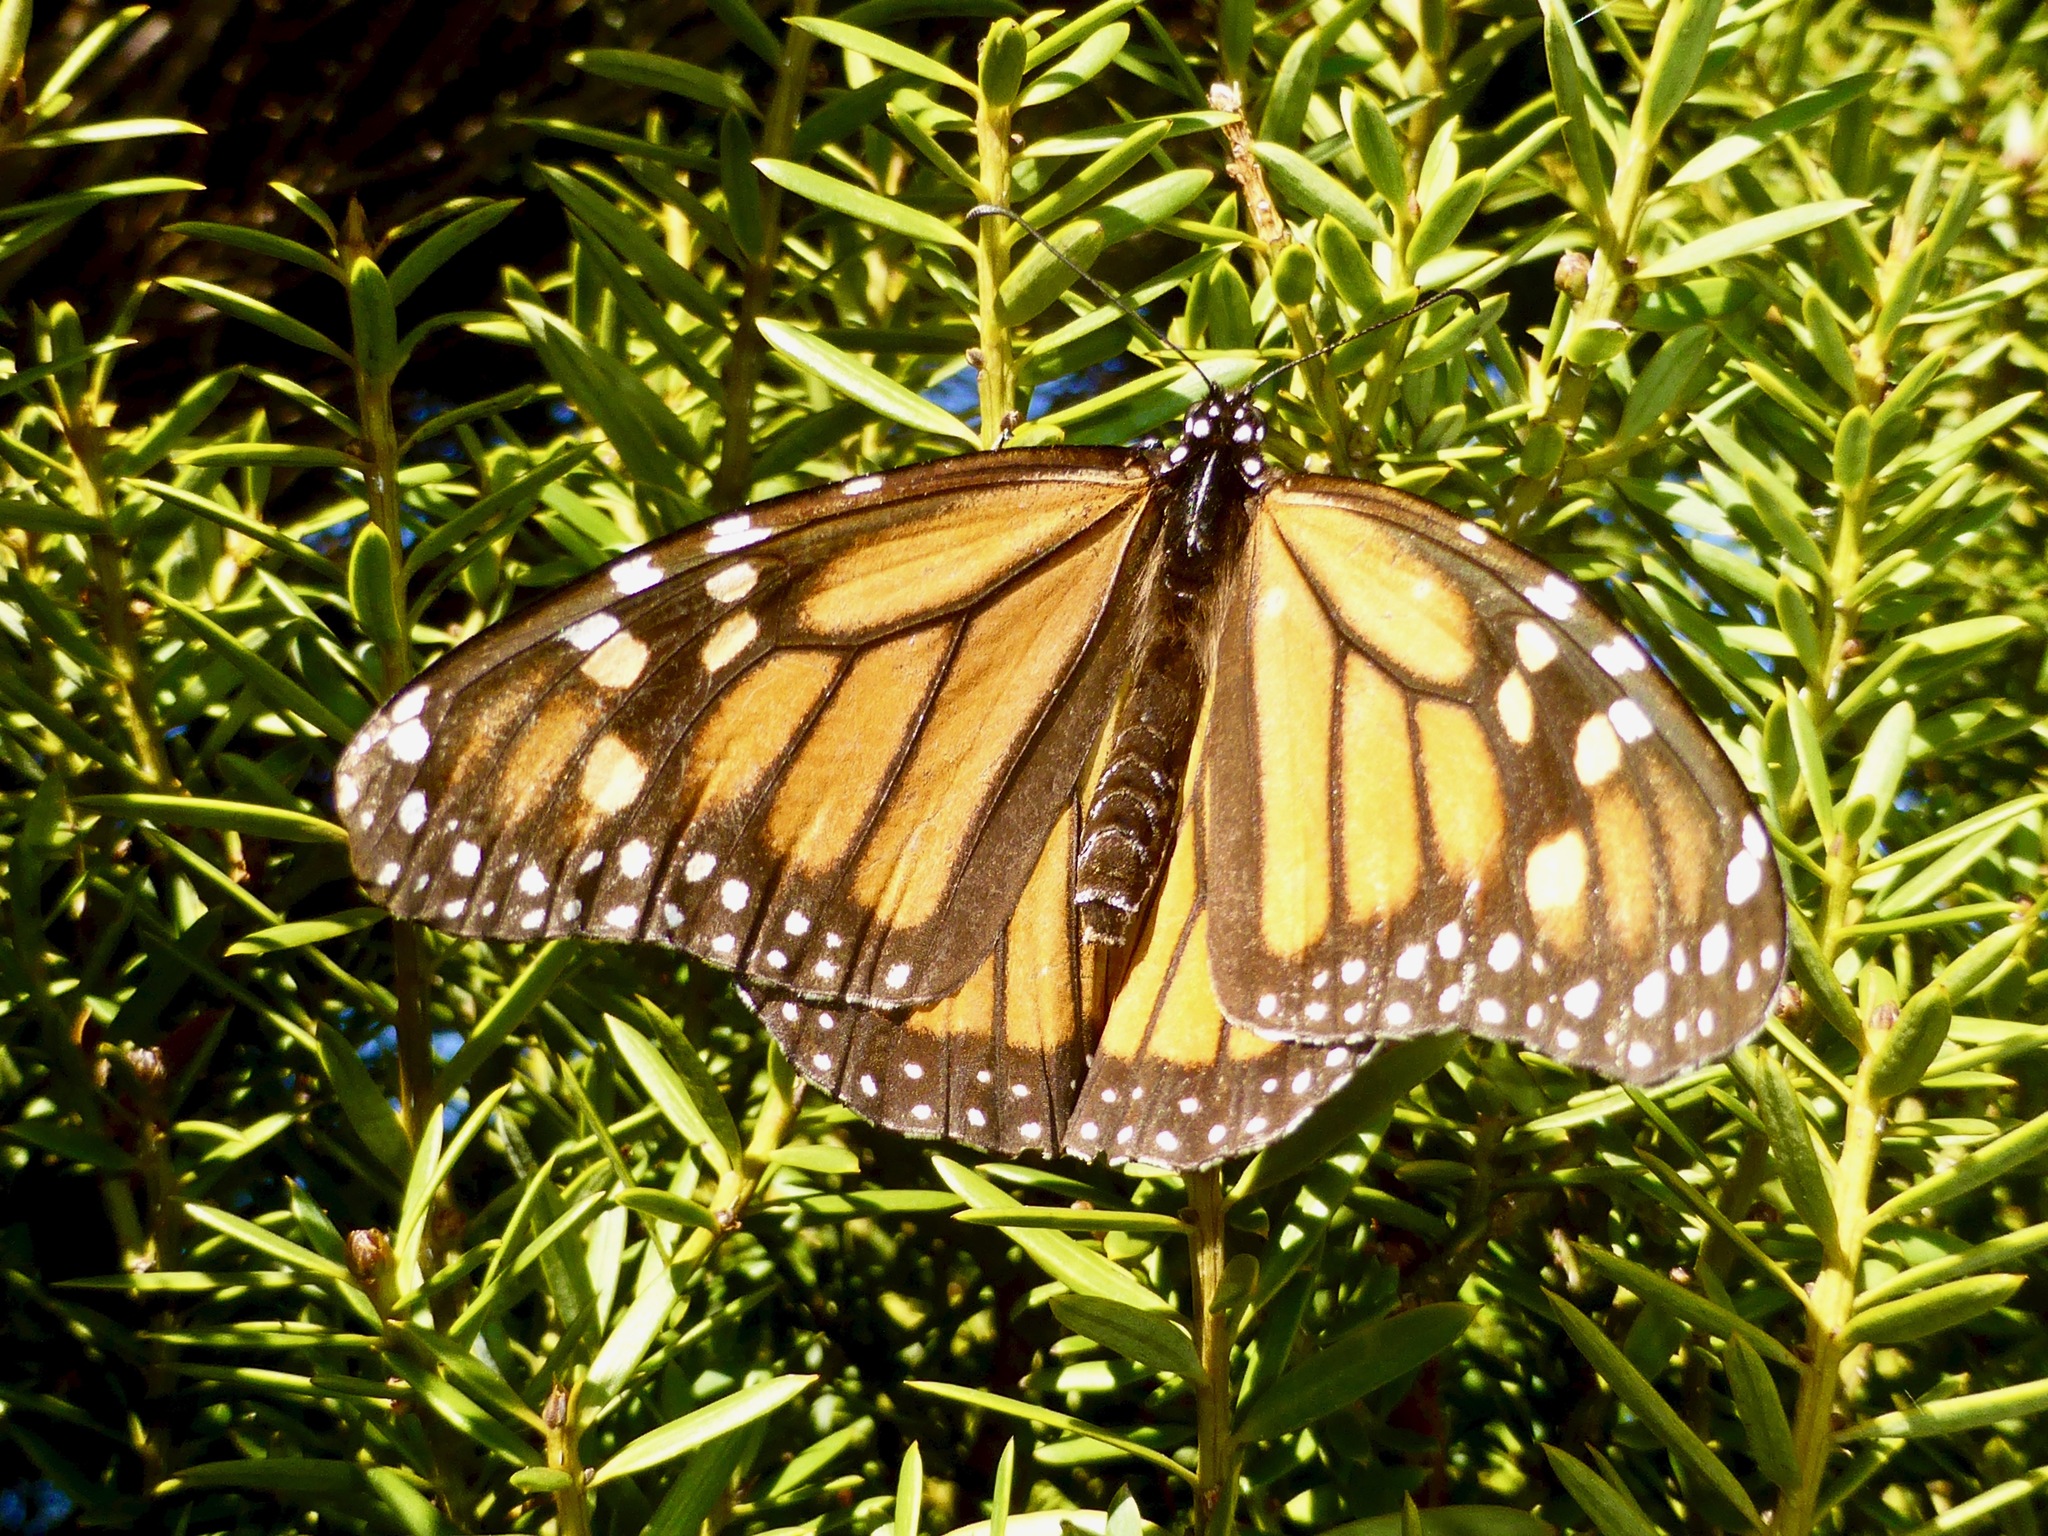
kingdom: Animalia
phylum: Arthropoda
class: Insecta
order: Lepidoptera
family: Nymphalidae
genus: Danaus
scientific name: Danaus plexippus
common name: Monarch
